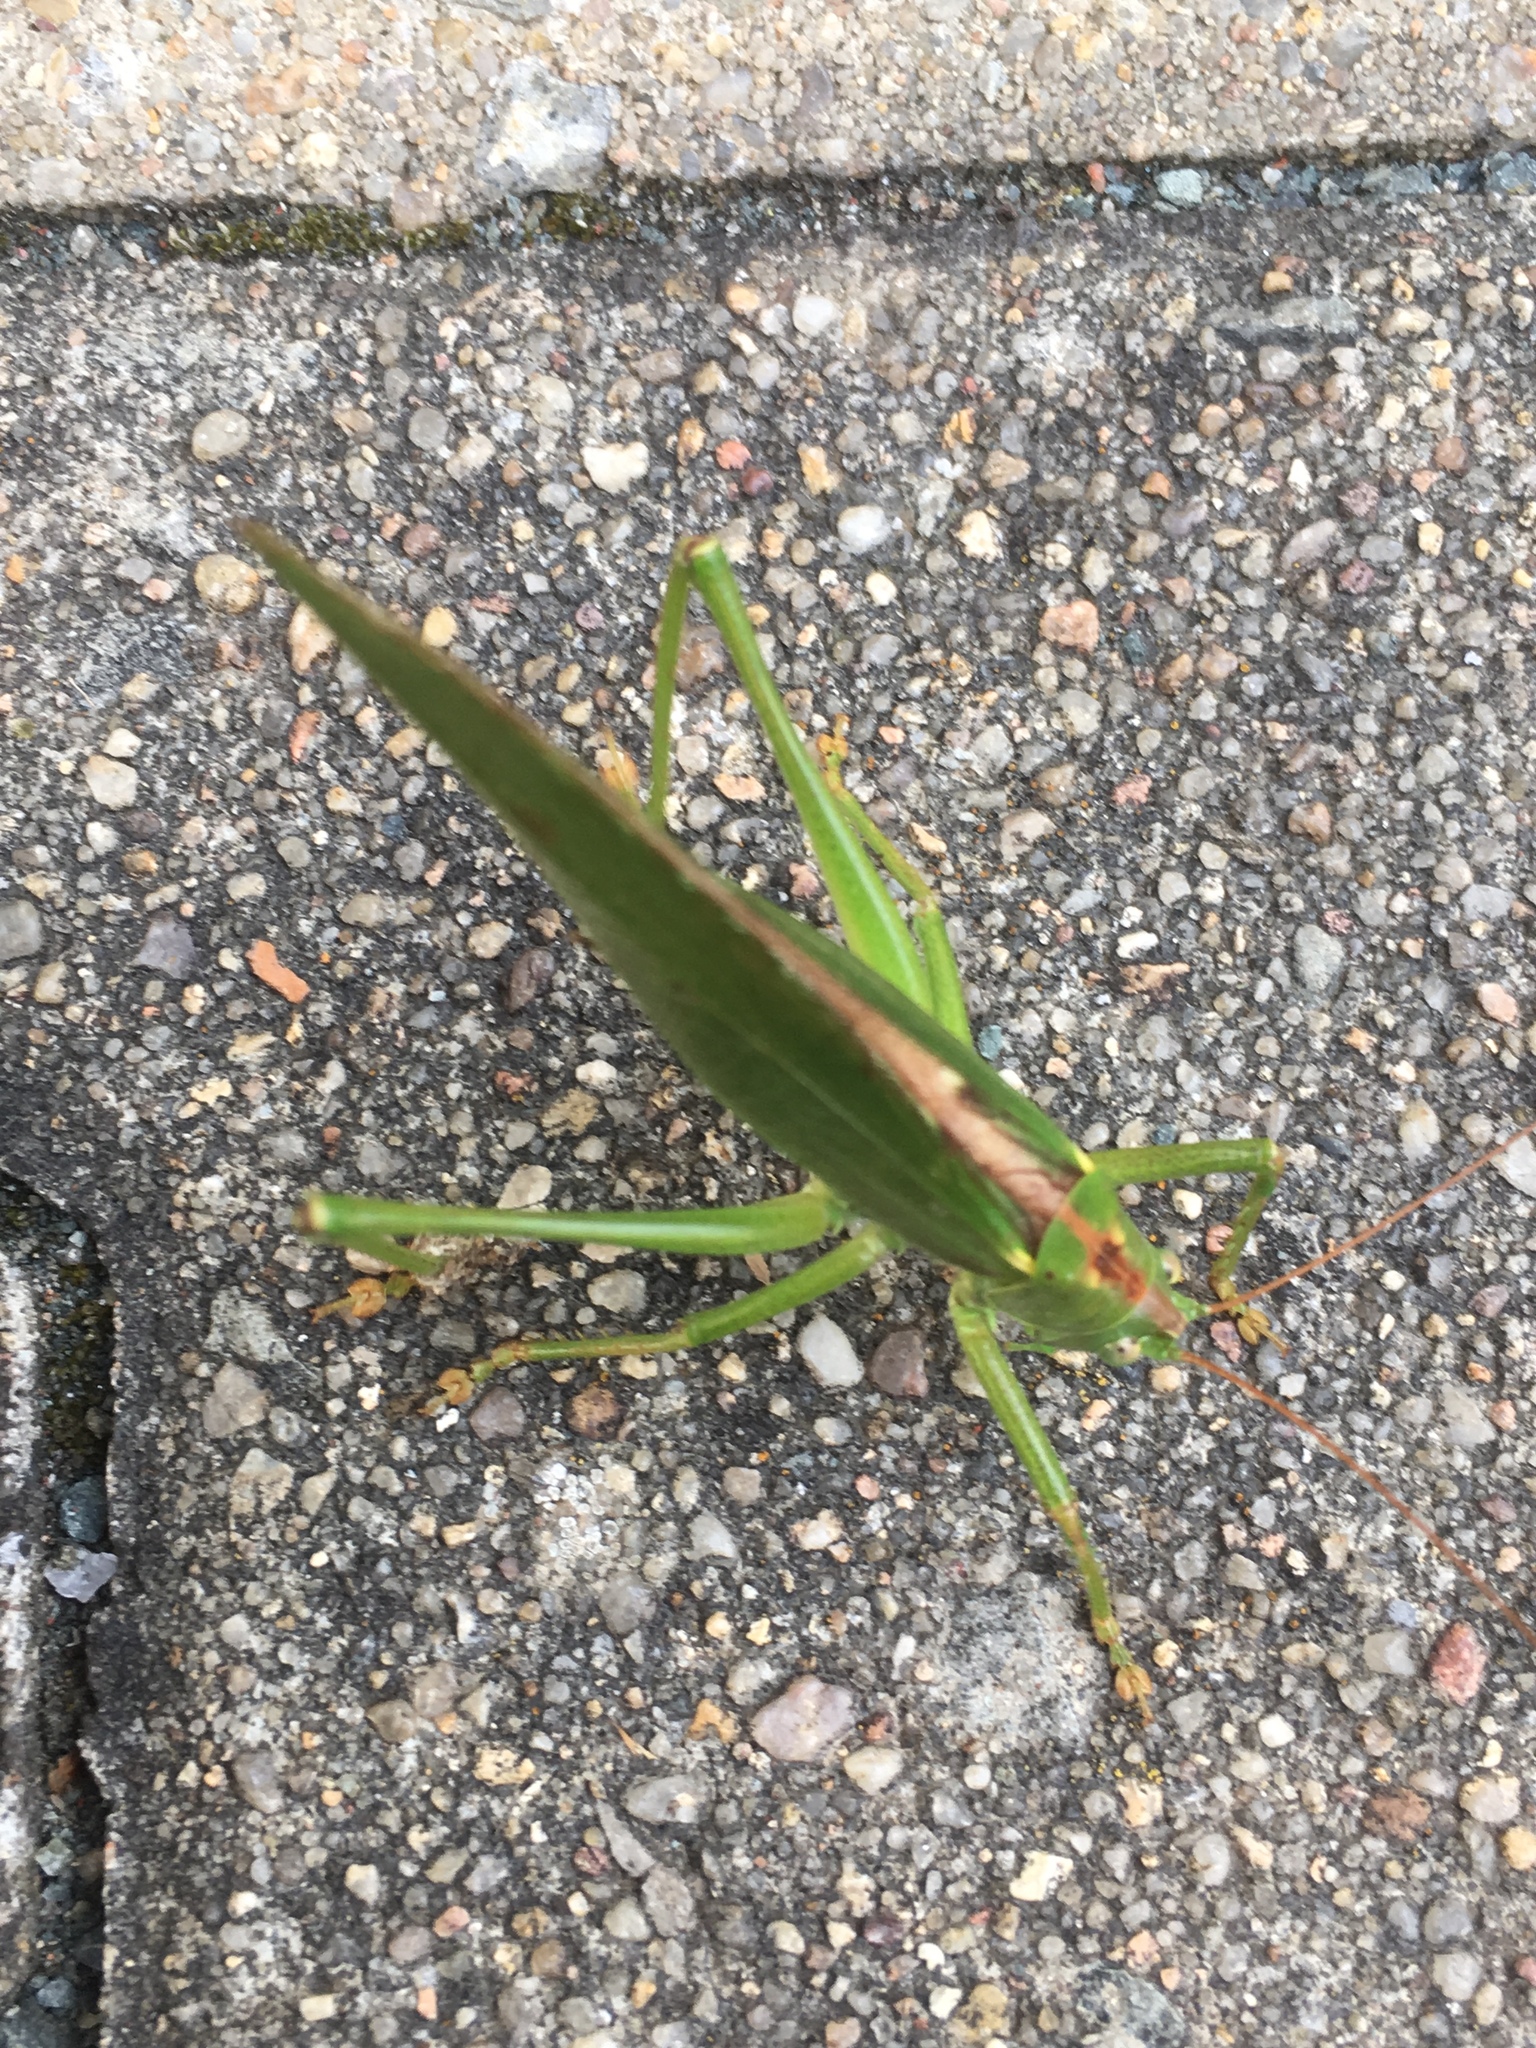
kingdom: Animalia
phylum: Arthropoda
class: Insecta
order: Orthoptera
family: Tettigoniidae
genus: Tettigonia
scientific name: Tettigonia viridissima
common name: Great green bush-cricket
